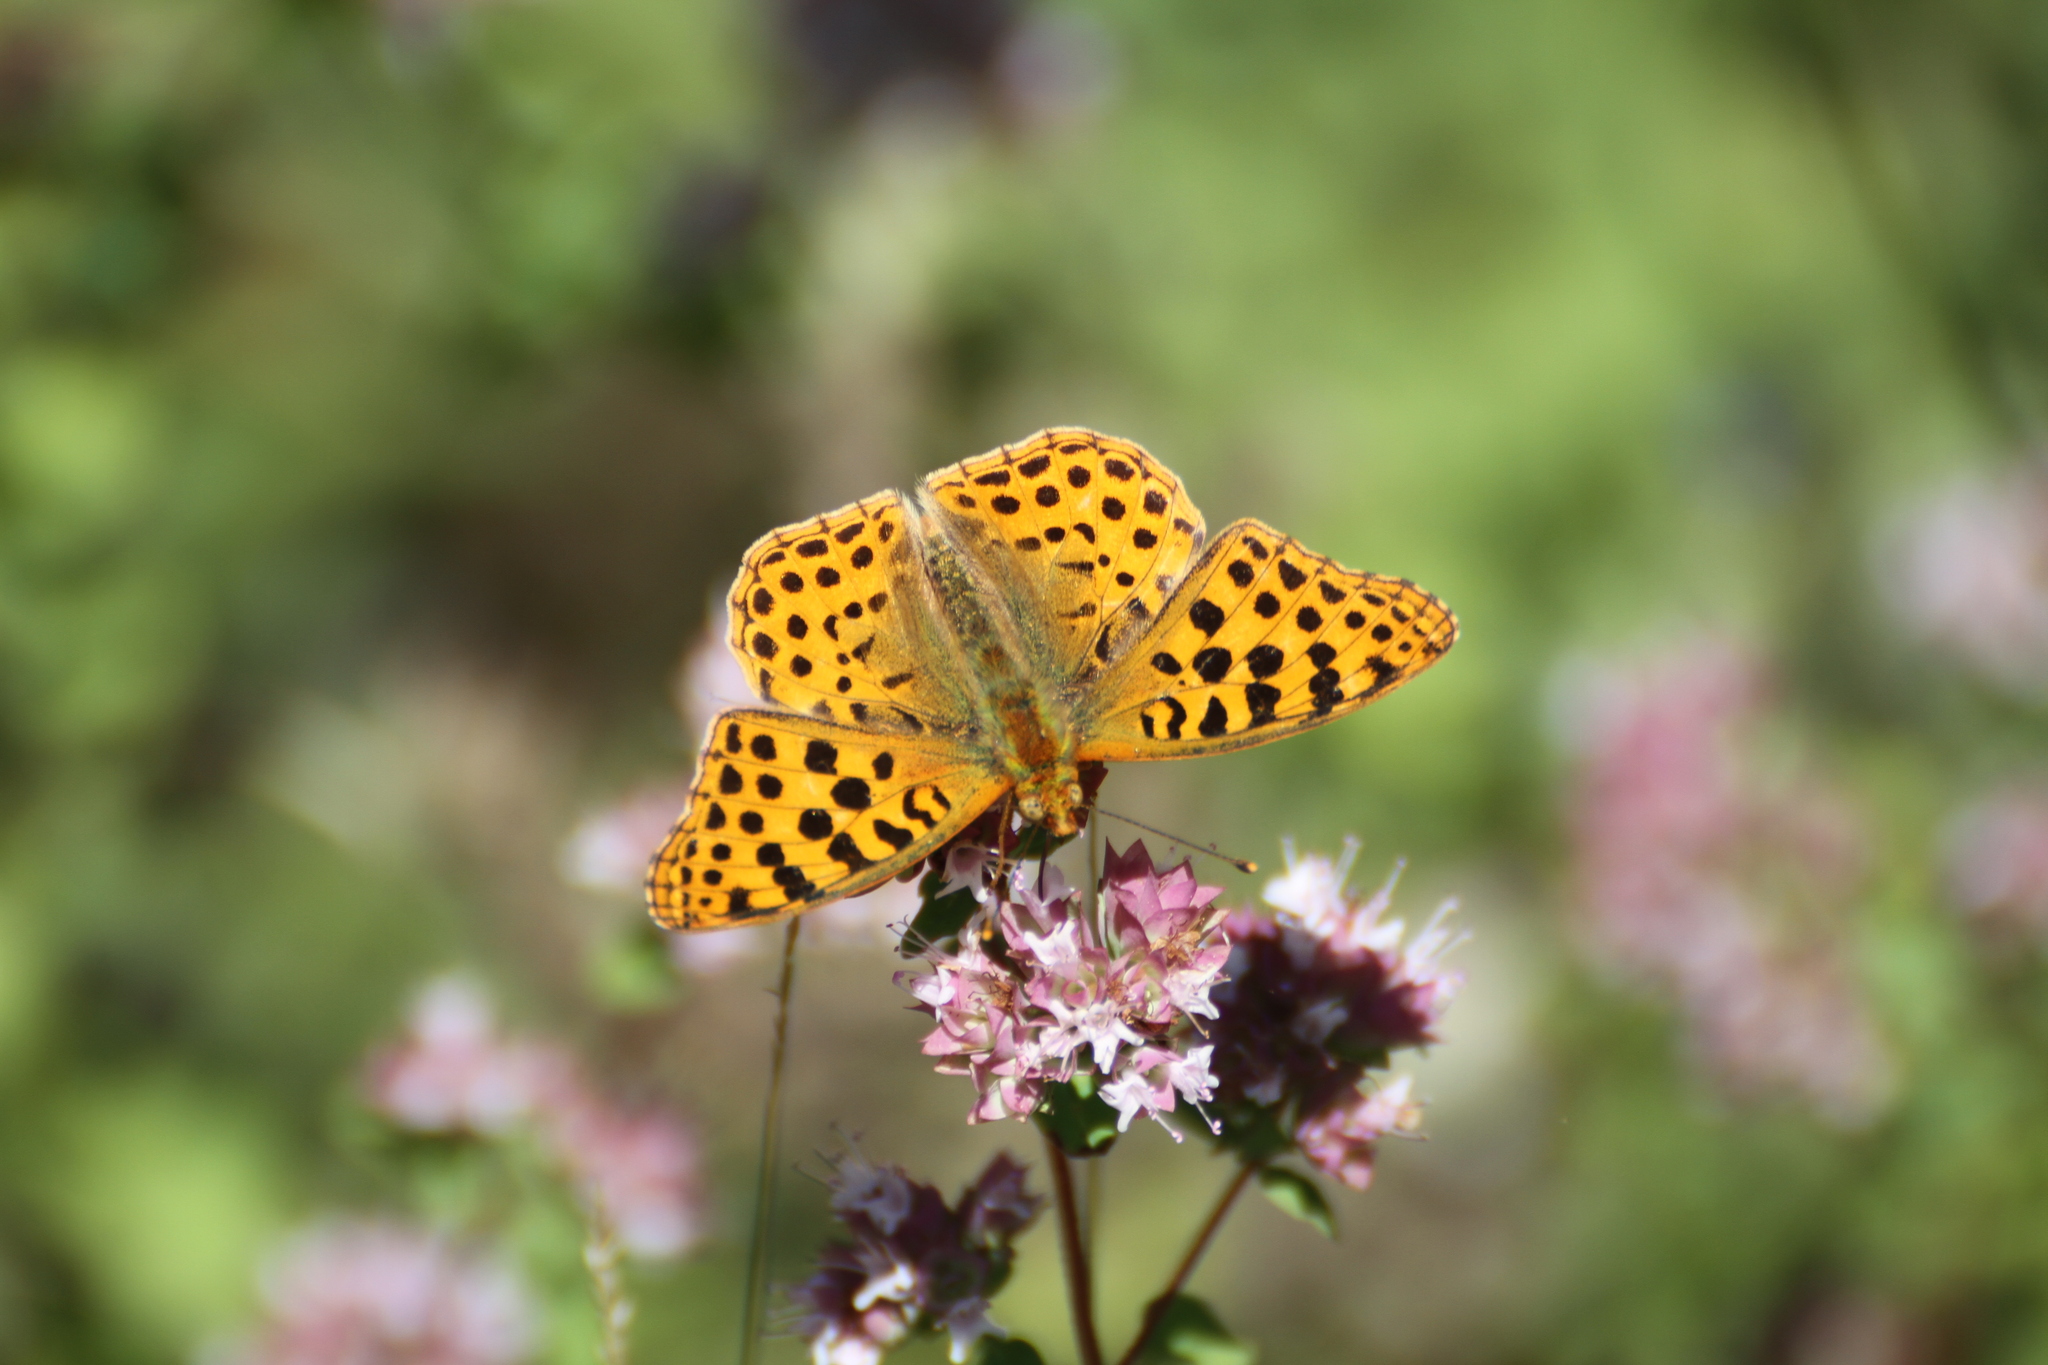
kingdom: Animalia
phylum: Arthropoda
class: Insecta
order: Lepidoptera
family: Nymphalidae
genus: Issoria
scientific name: Issoria lathonia
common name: Queen of spain fritillary
